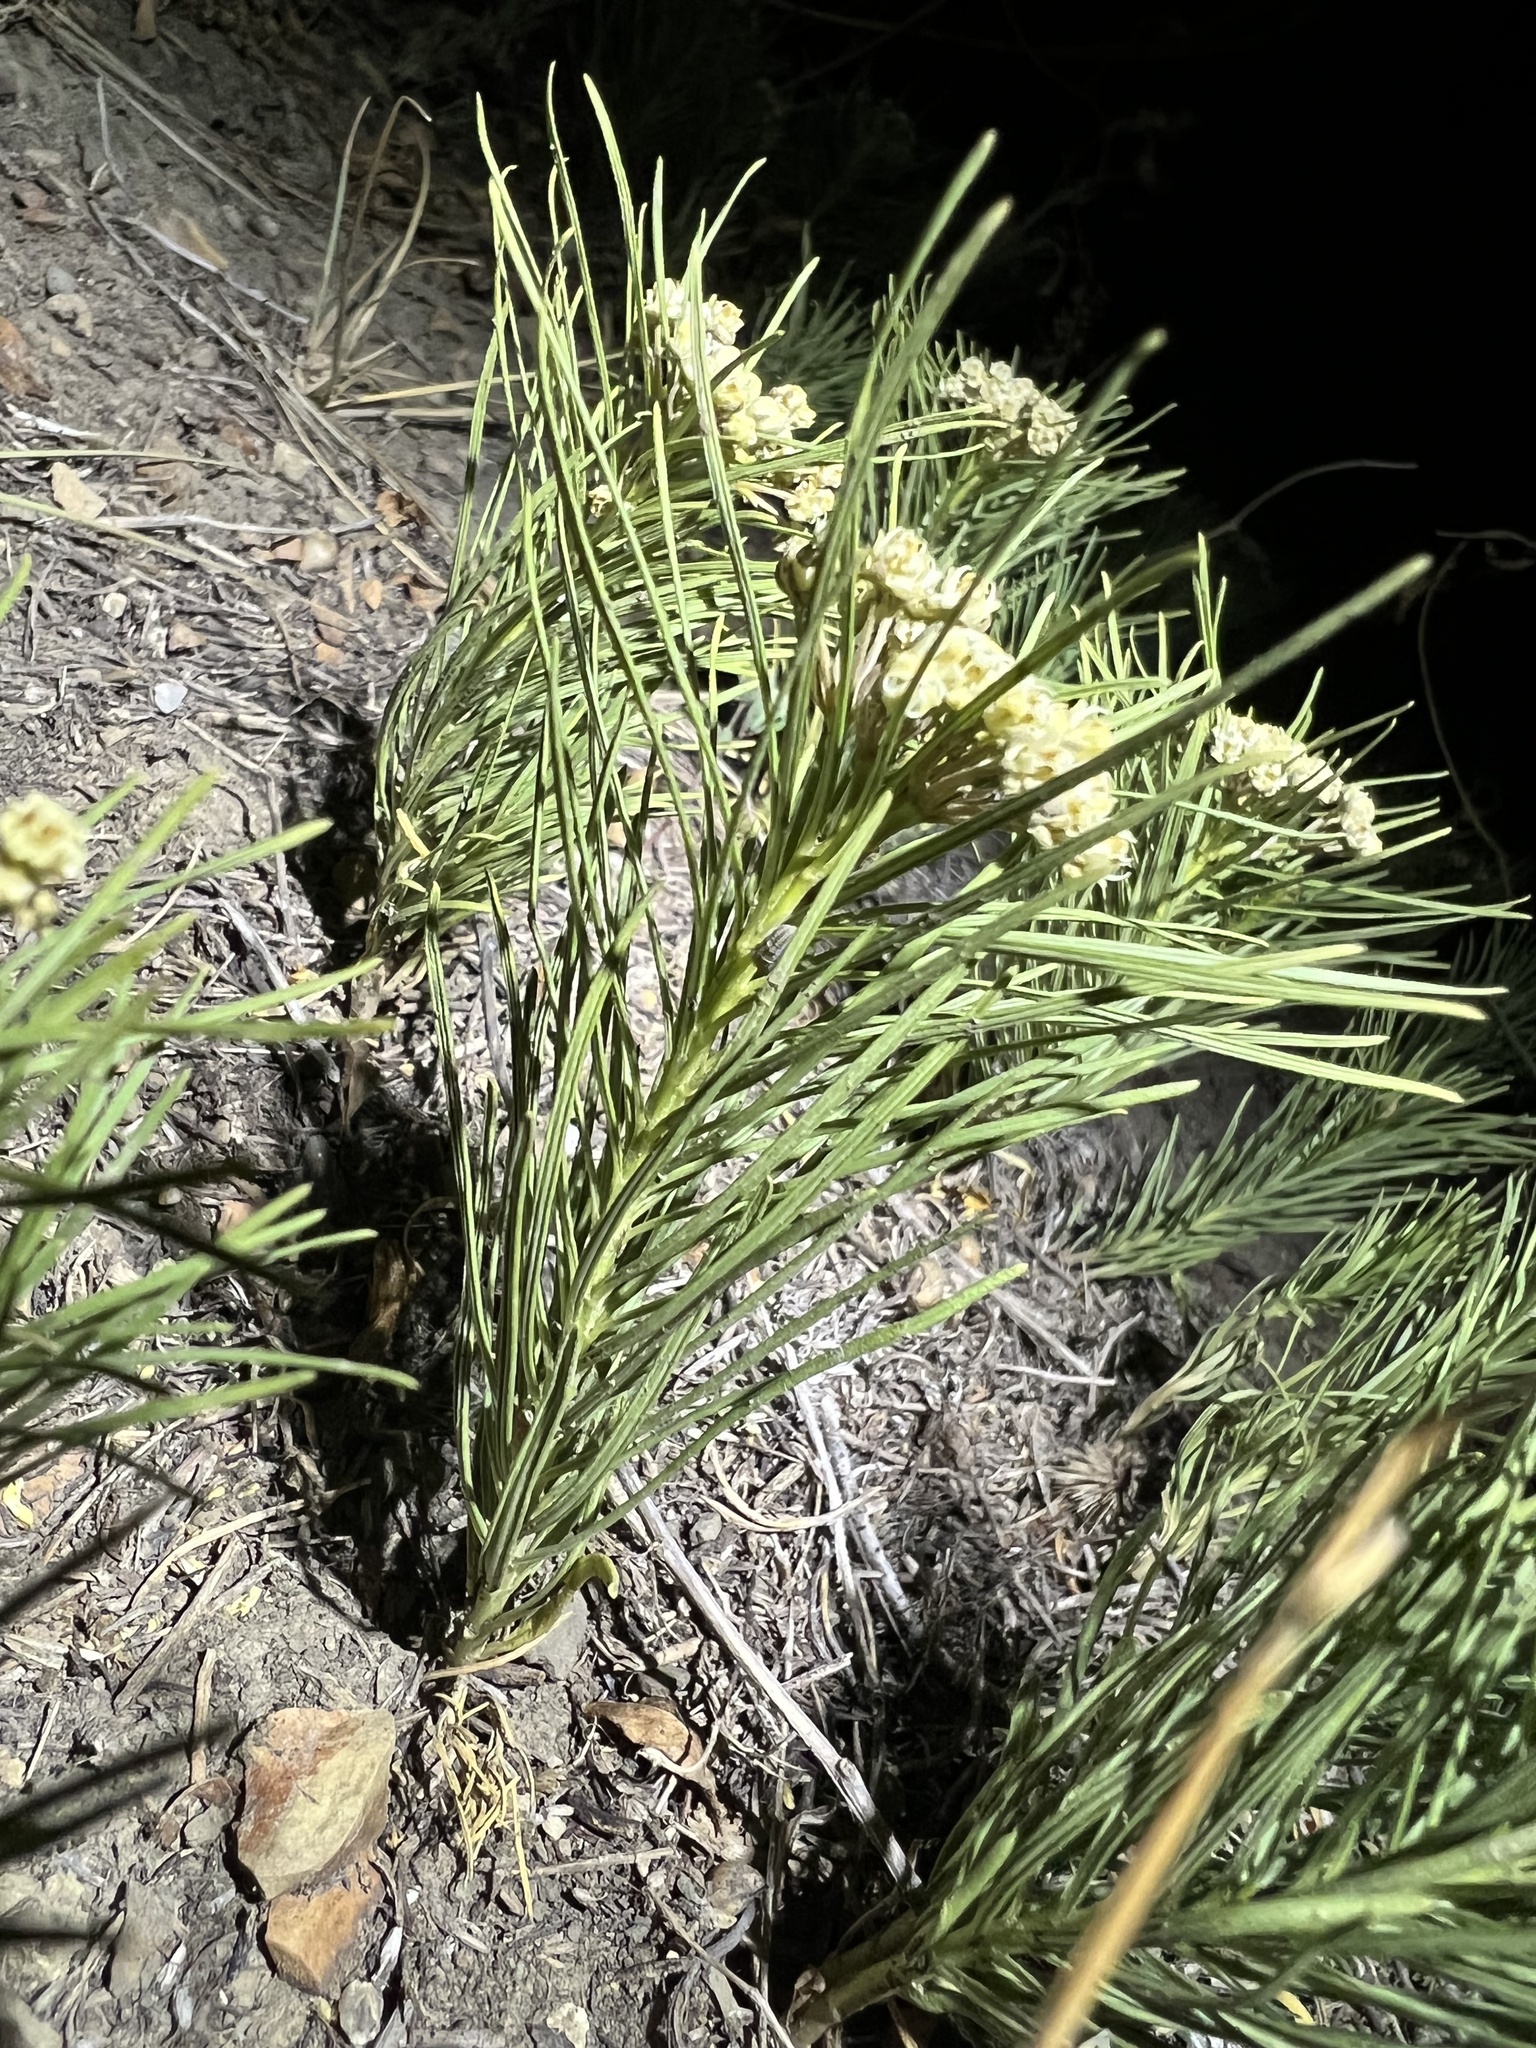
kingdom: Plantae
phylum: Tracheophyta
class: Magnoliopsida
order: Gentianales
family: Apocynaceae
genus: Asclepias
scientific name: Asclepias pumila
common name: Dwarf milkweed
